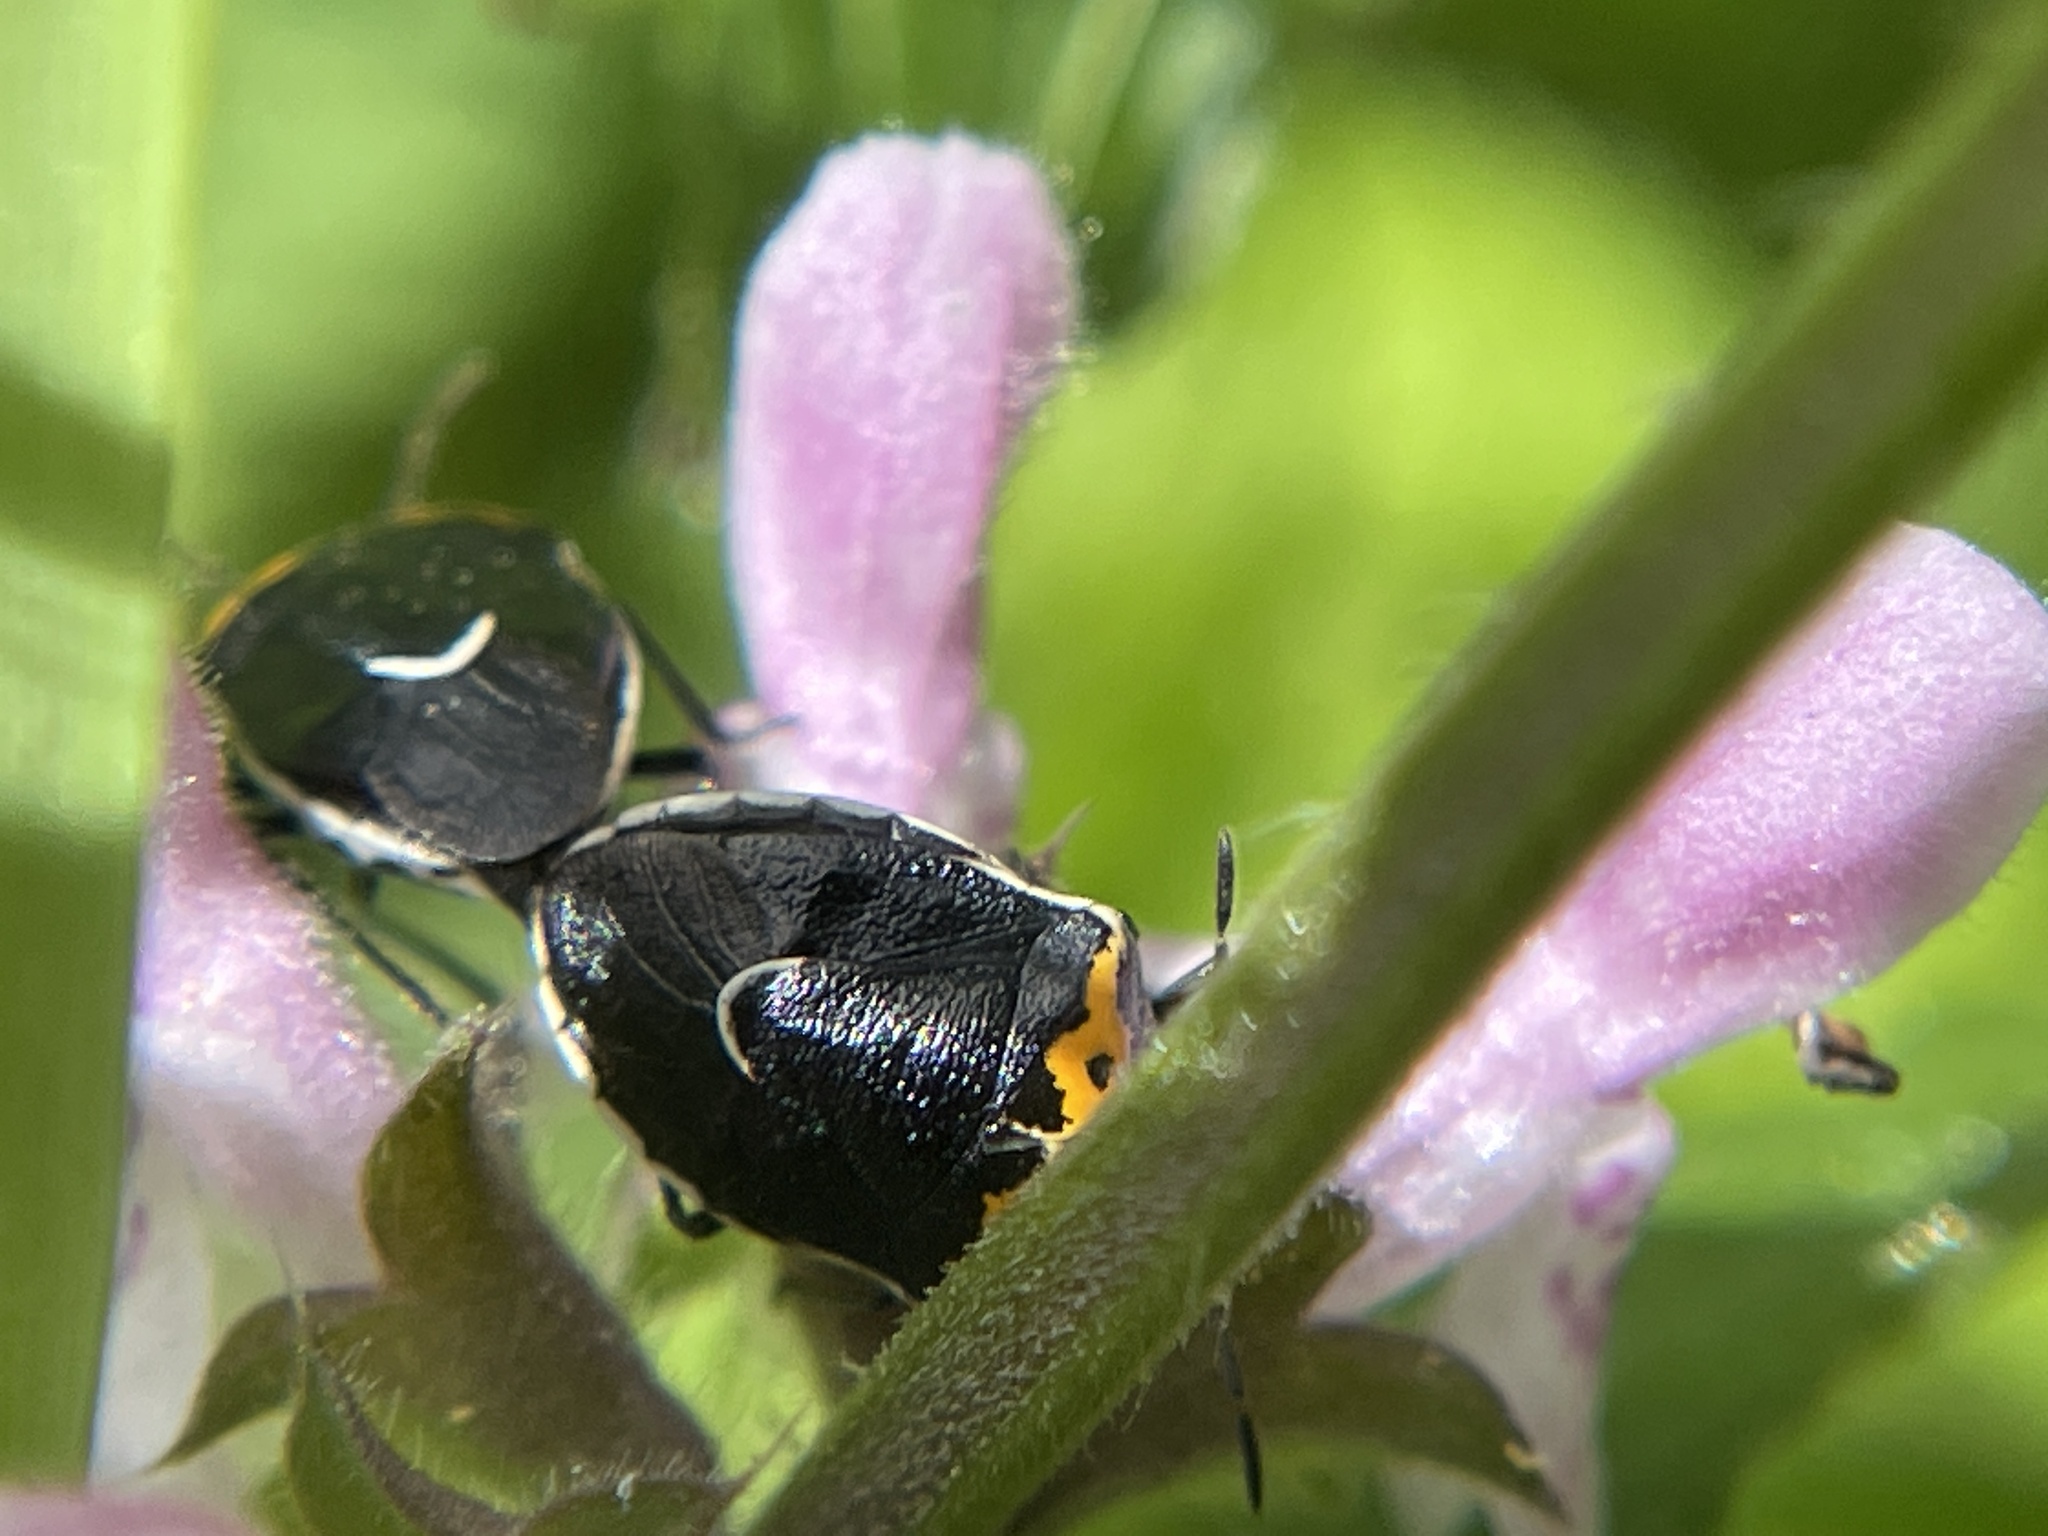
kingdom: Animalia
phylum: Arthropoda
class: Insecta
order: Hemiptera
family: Pentatomidae
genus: Cosmopepla
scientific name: Cosmopepla conspicillaris
